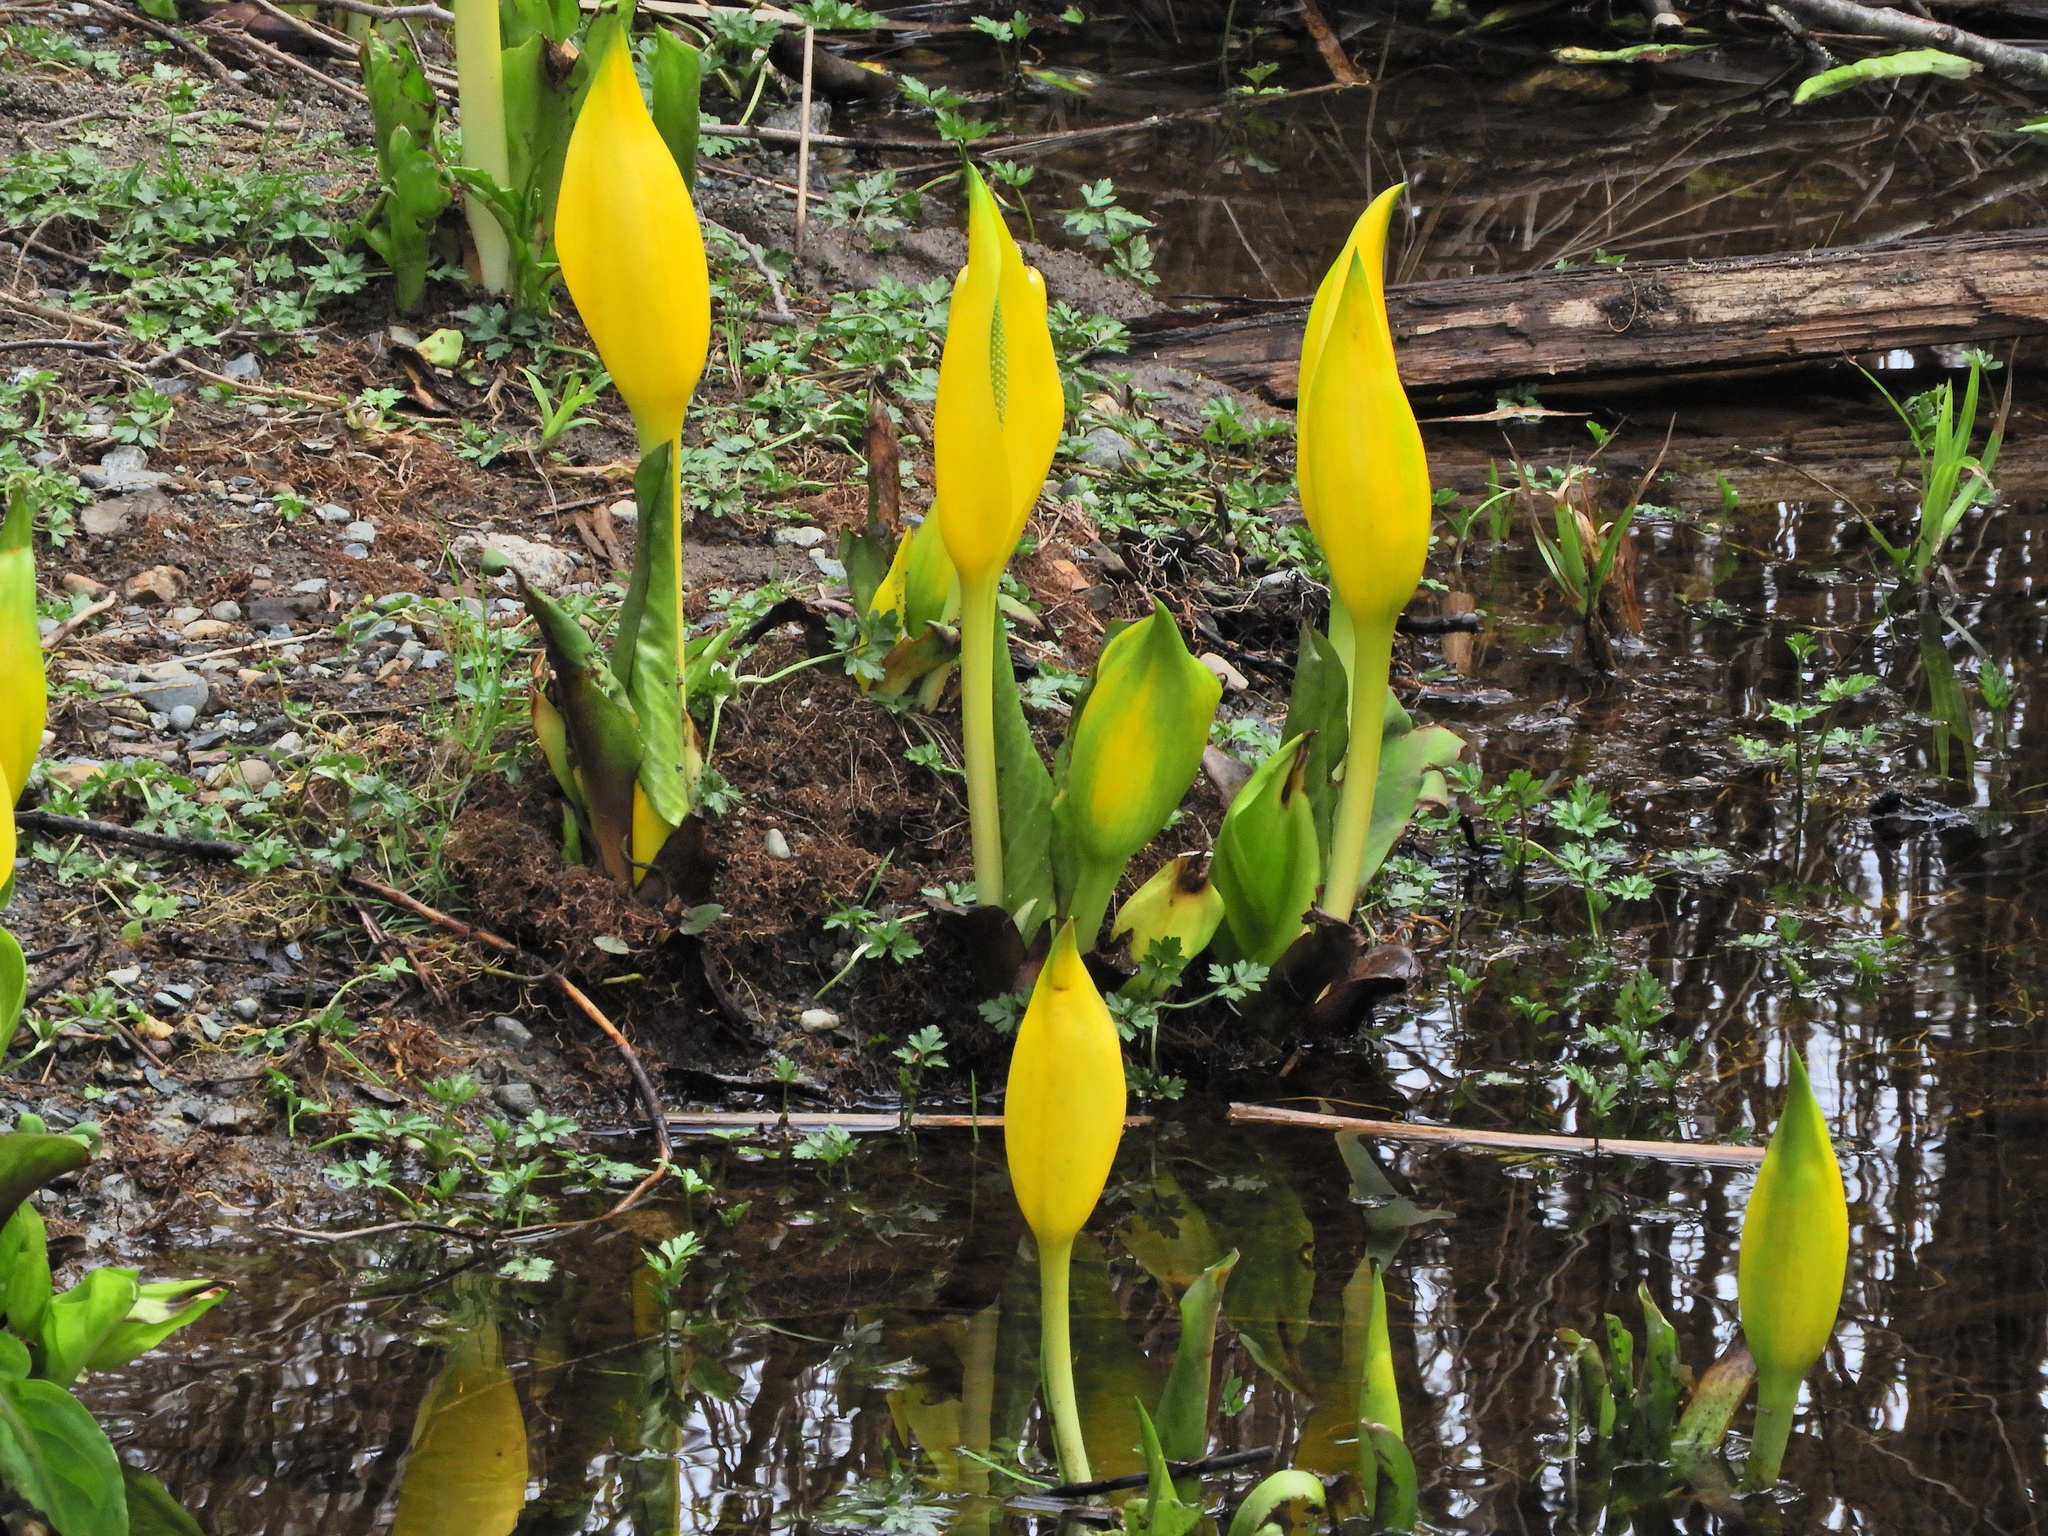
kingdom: Plantae
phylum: Tracheophyta
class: Liliopsida
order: Alismatales
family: Araceae
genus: Lysichiton
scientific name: Lysichiton americanus
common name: American skunk cabbage
